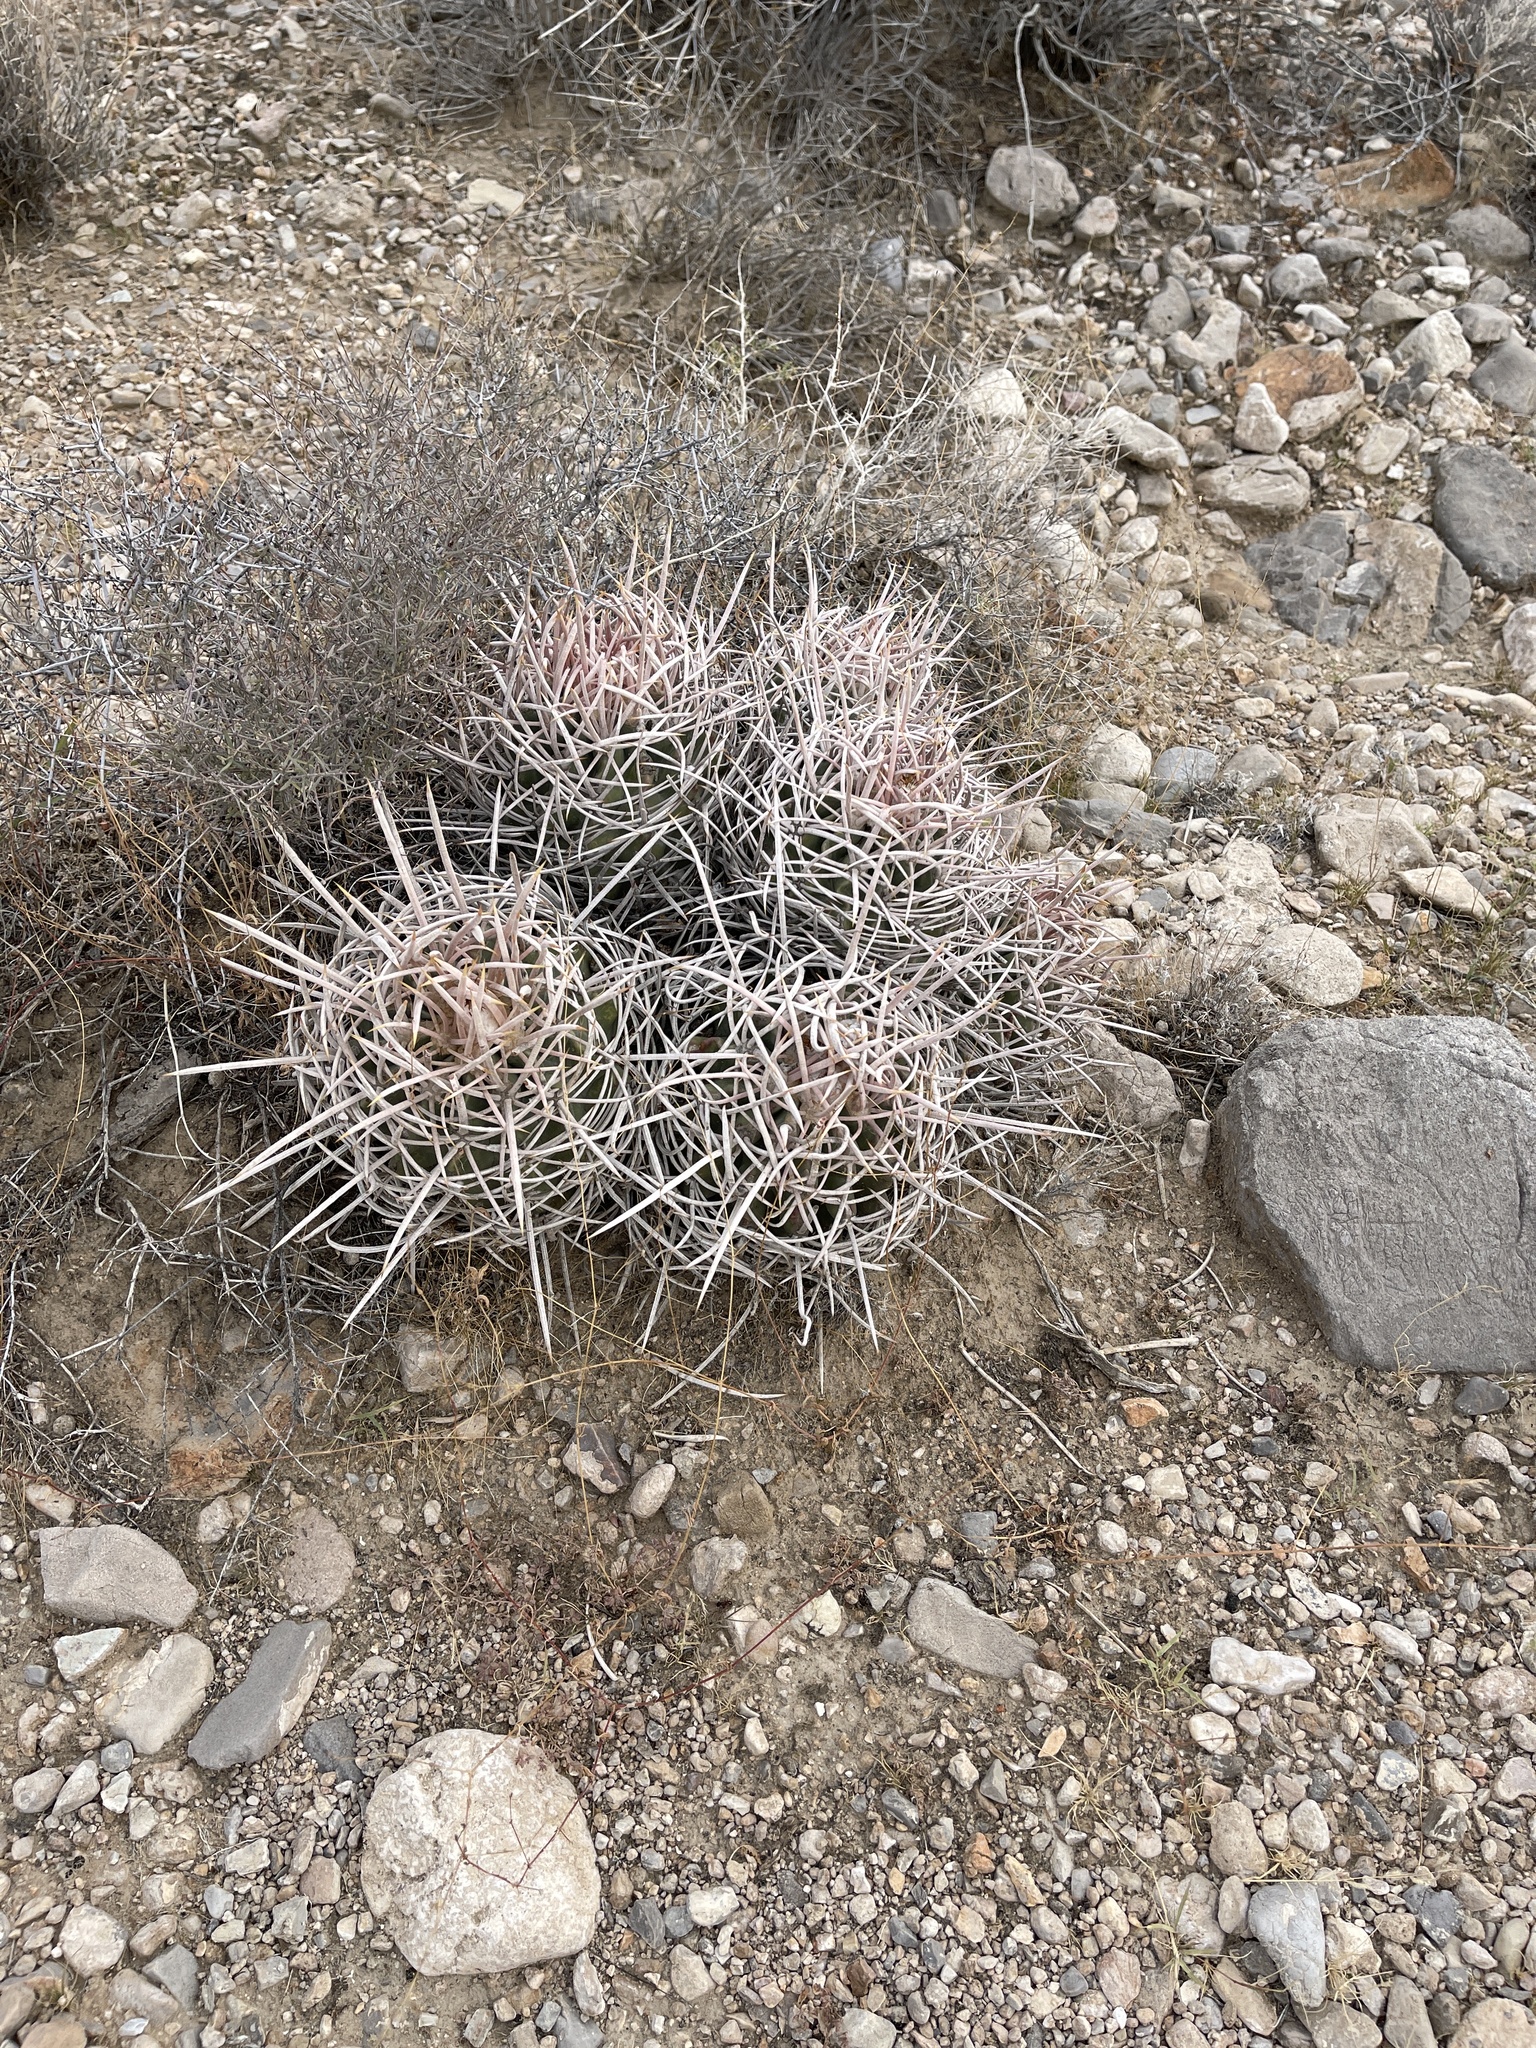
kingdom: Plantae
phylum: Tracheophyta
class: Magnoliopsida
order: Caryophyllales
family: Cactaceae
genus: Echinocactus
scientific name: Echinocactus polycephalus
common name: Cottontop cactus
